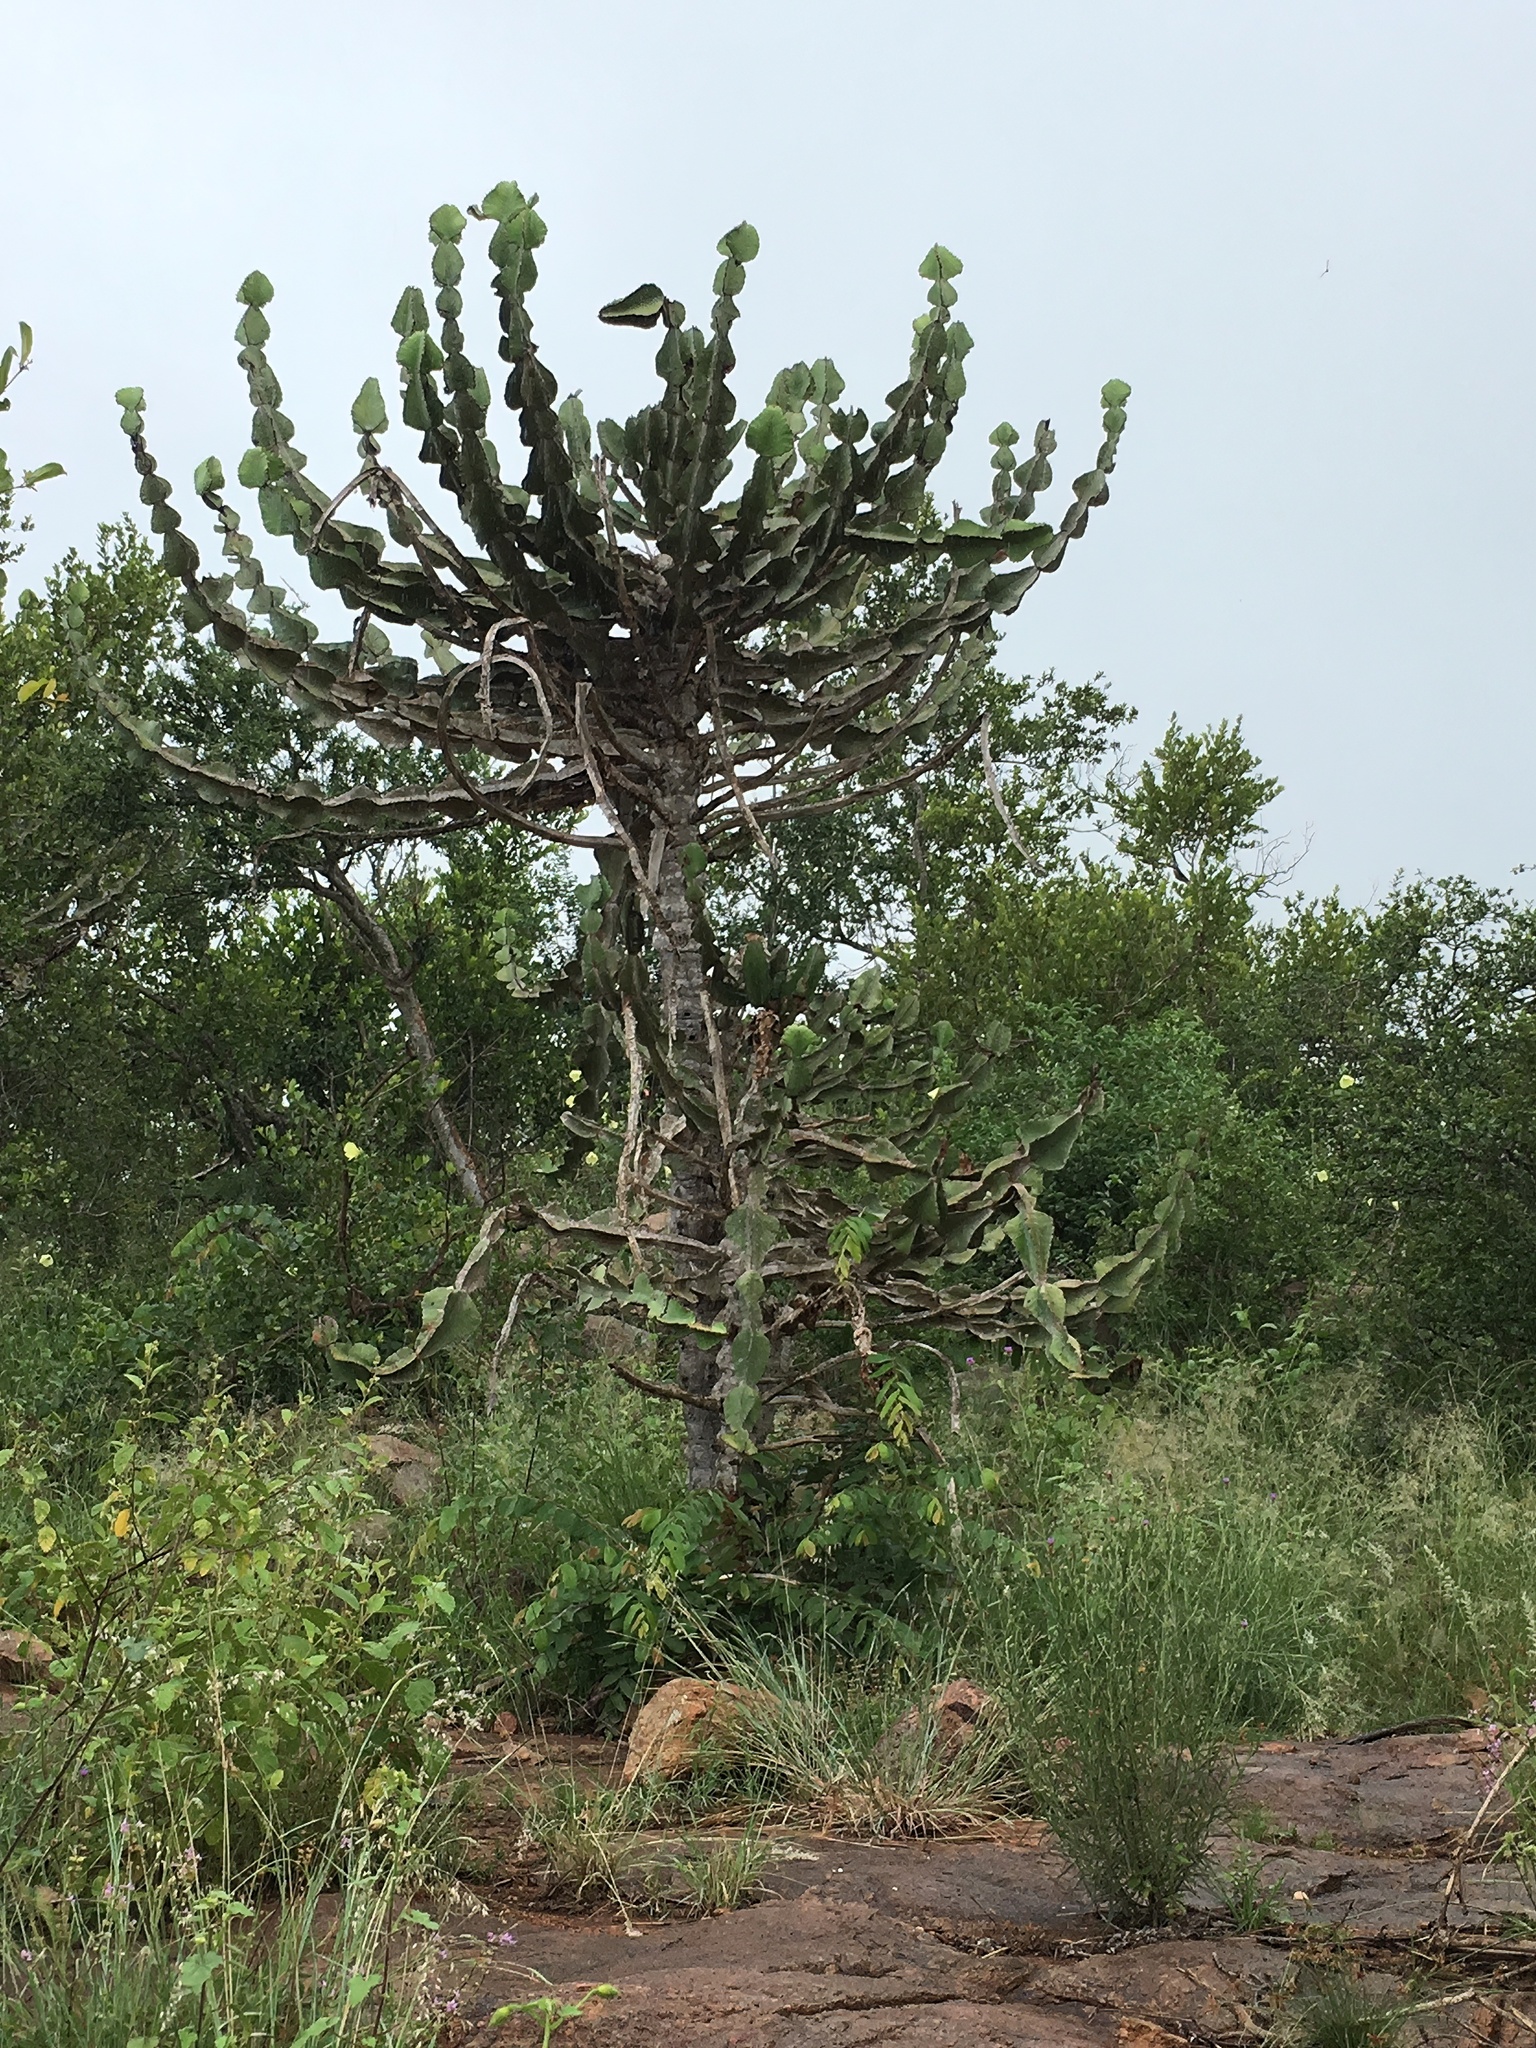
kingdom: Plantae
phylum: Tracheophyta
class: Magnoliopsida
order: Malpighiales
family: Euphorbiaceae
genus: Euphorbia
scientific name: Euphorbia cooperi
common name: Candelabra tree
